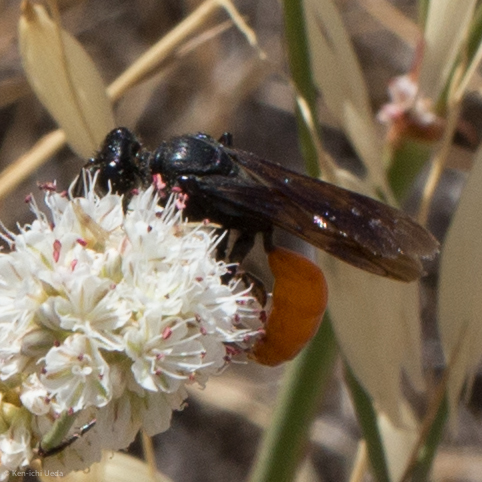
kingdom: Animalia
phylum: Arthropoda
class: Insecta
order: Hymenoptera
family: Sphecidae
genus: Sphex
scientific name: Sphex lucae
